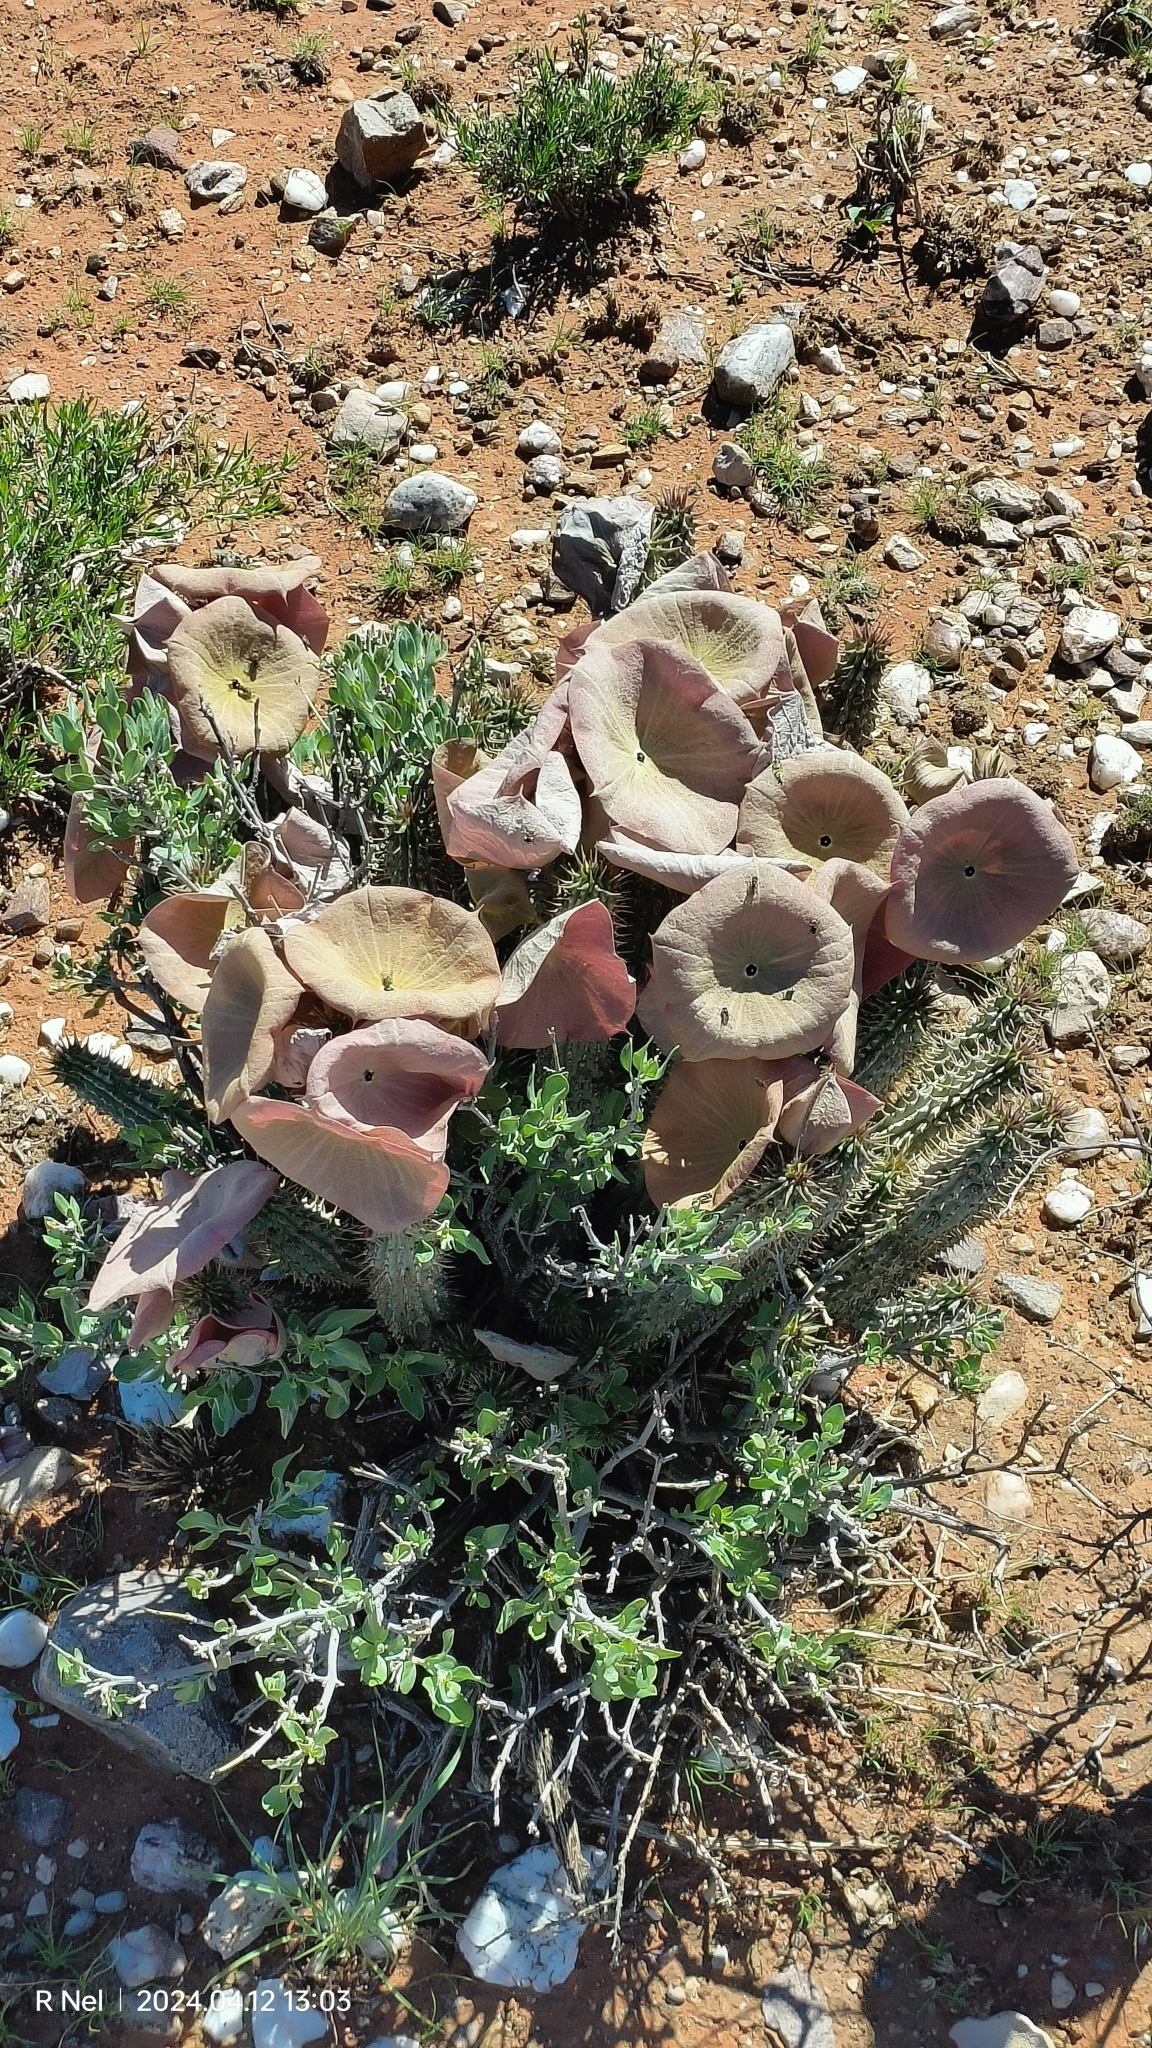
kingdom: Plantae
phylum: Tracheophyta
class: Magnoliopsida
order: Gentianales
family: Apocynaceae
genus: Hoodia
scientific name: Hoodia gordonii
